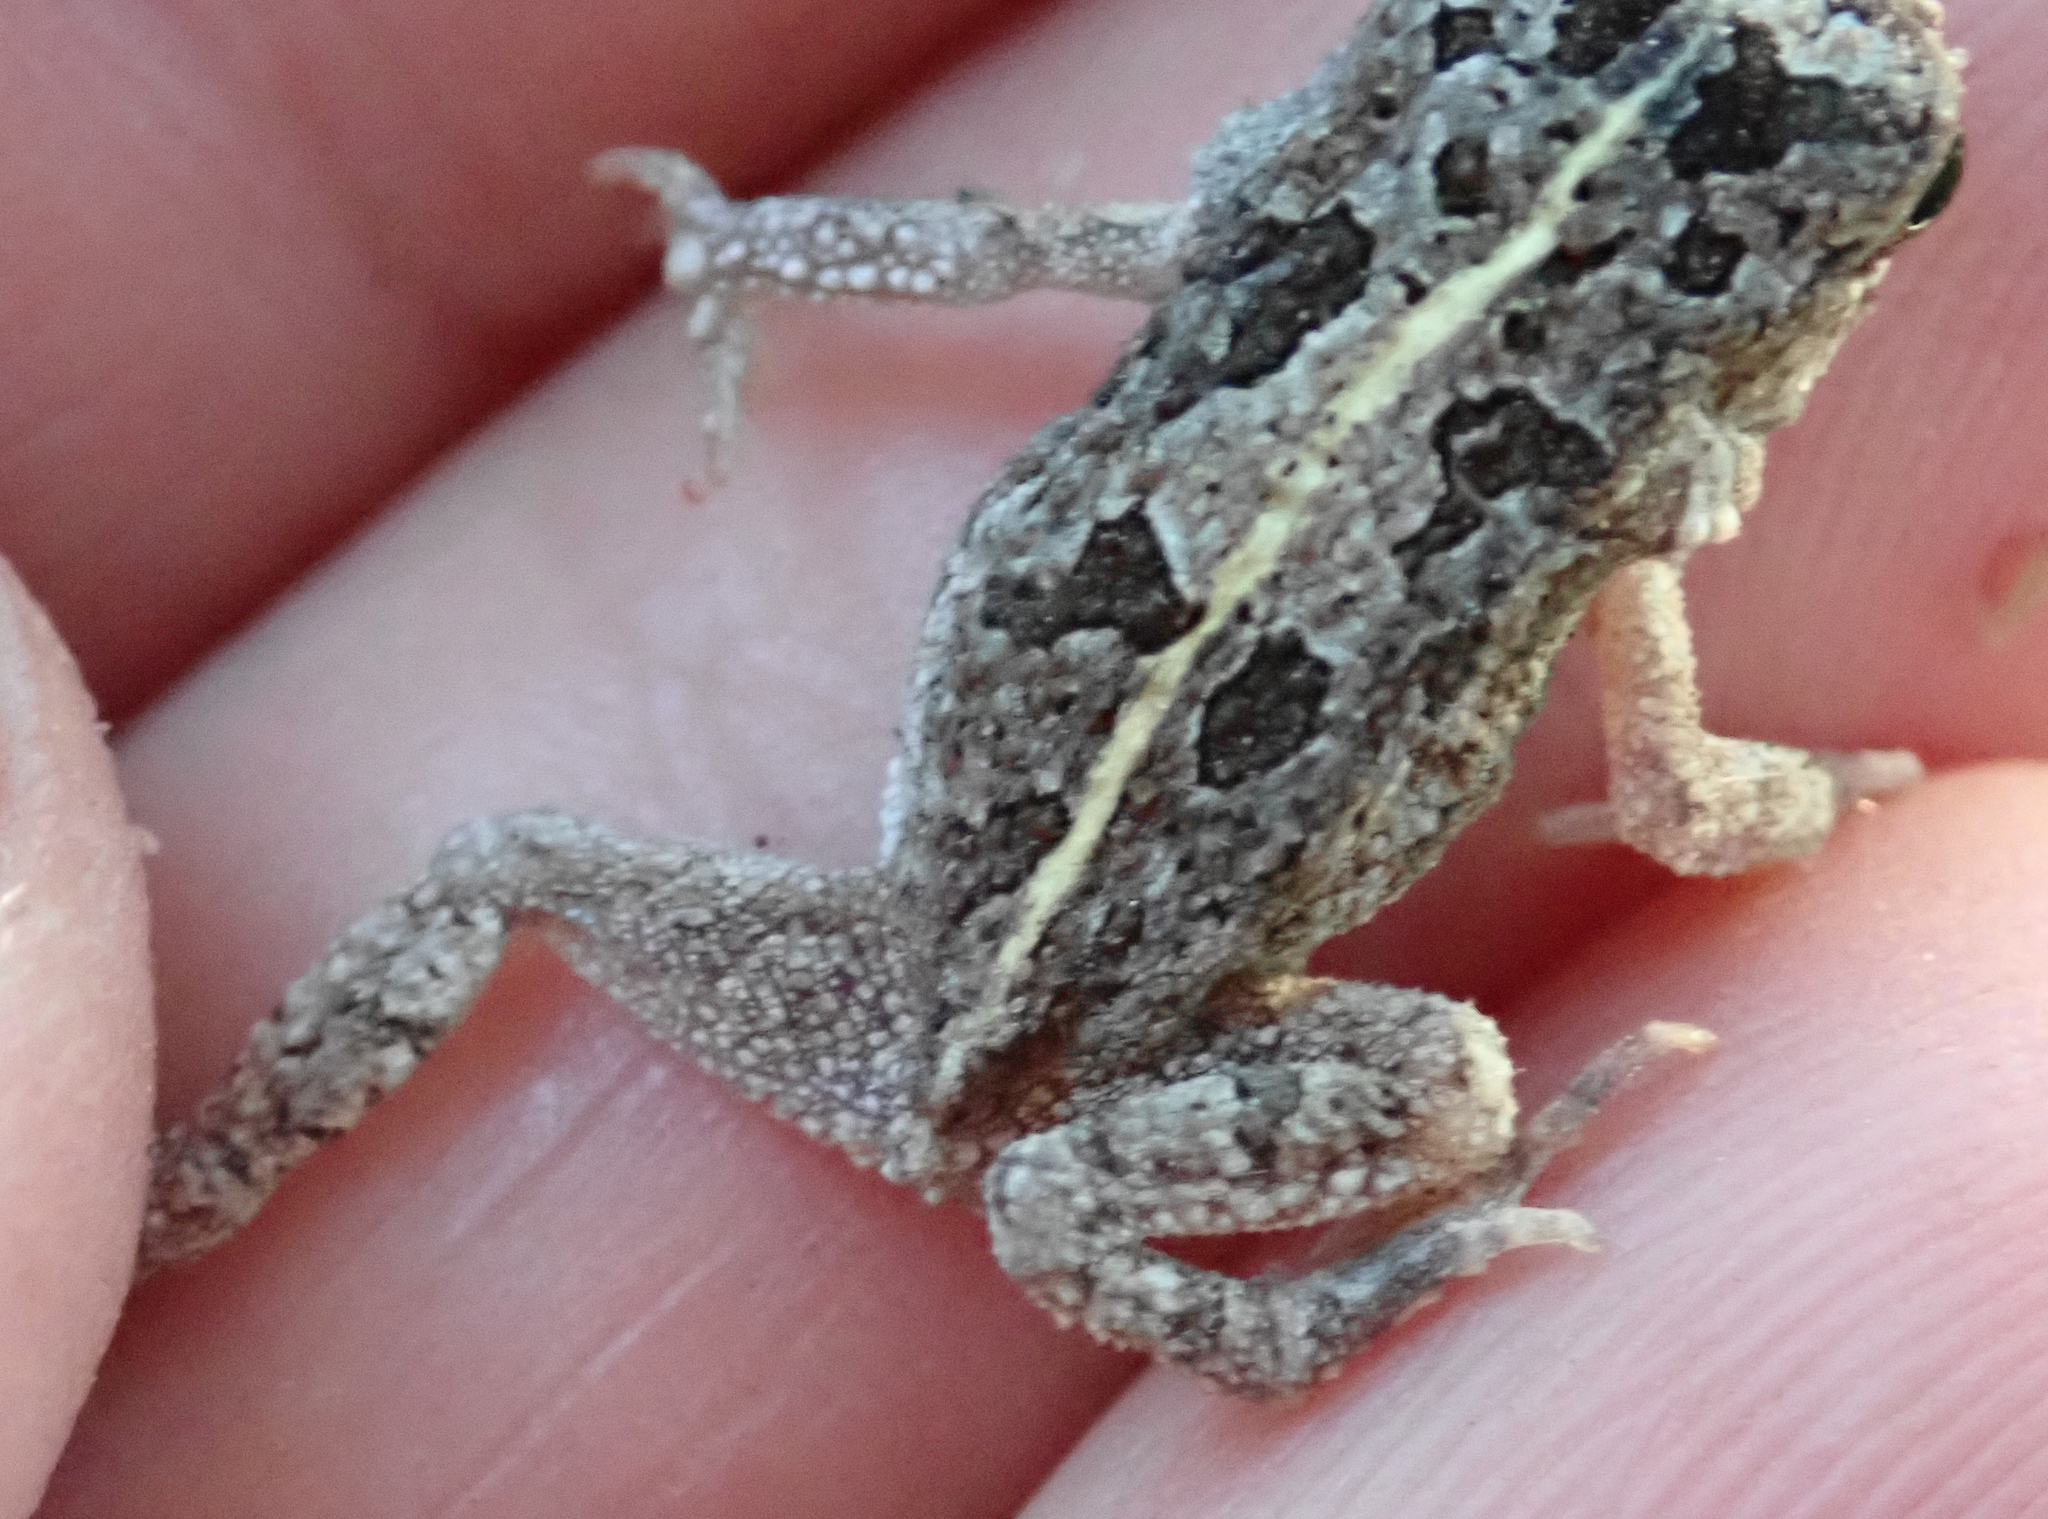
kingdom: Animalia
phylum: Chordata
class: Amphibia
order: Anura
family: Bufonidae
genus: Sclerophrys
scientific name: Sclerophrys gutturalis
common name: African common toad
